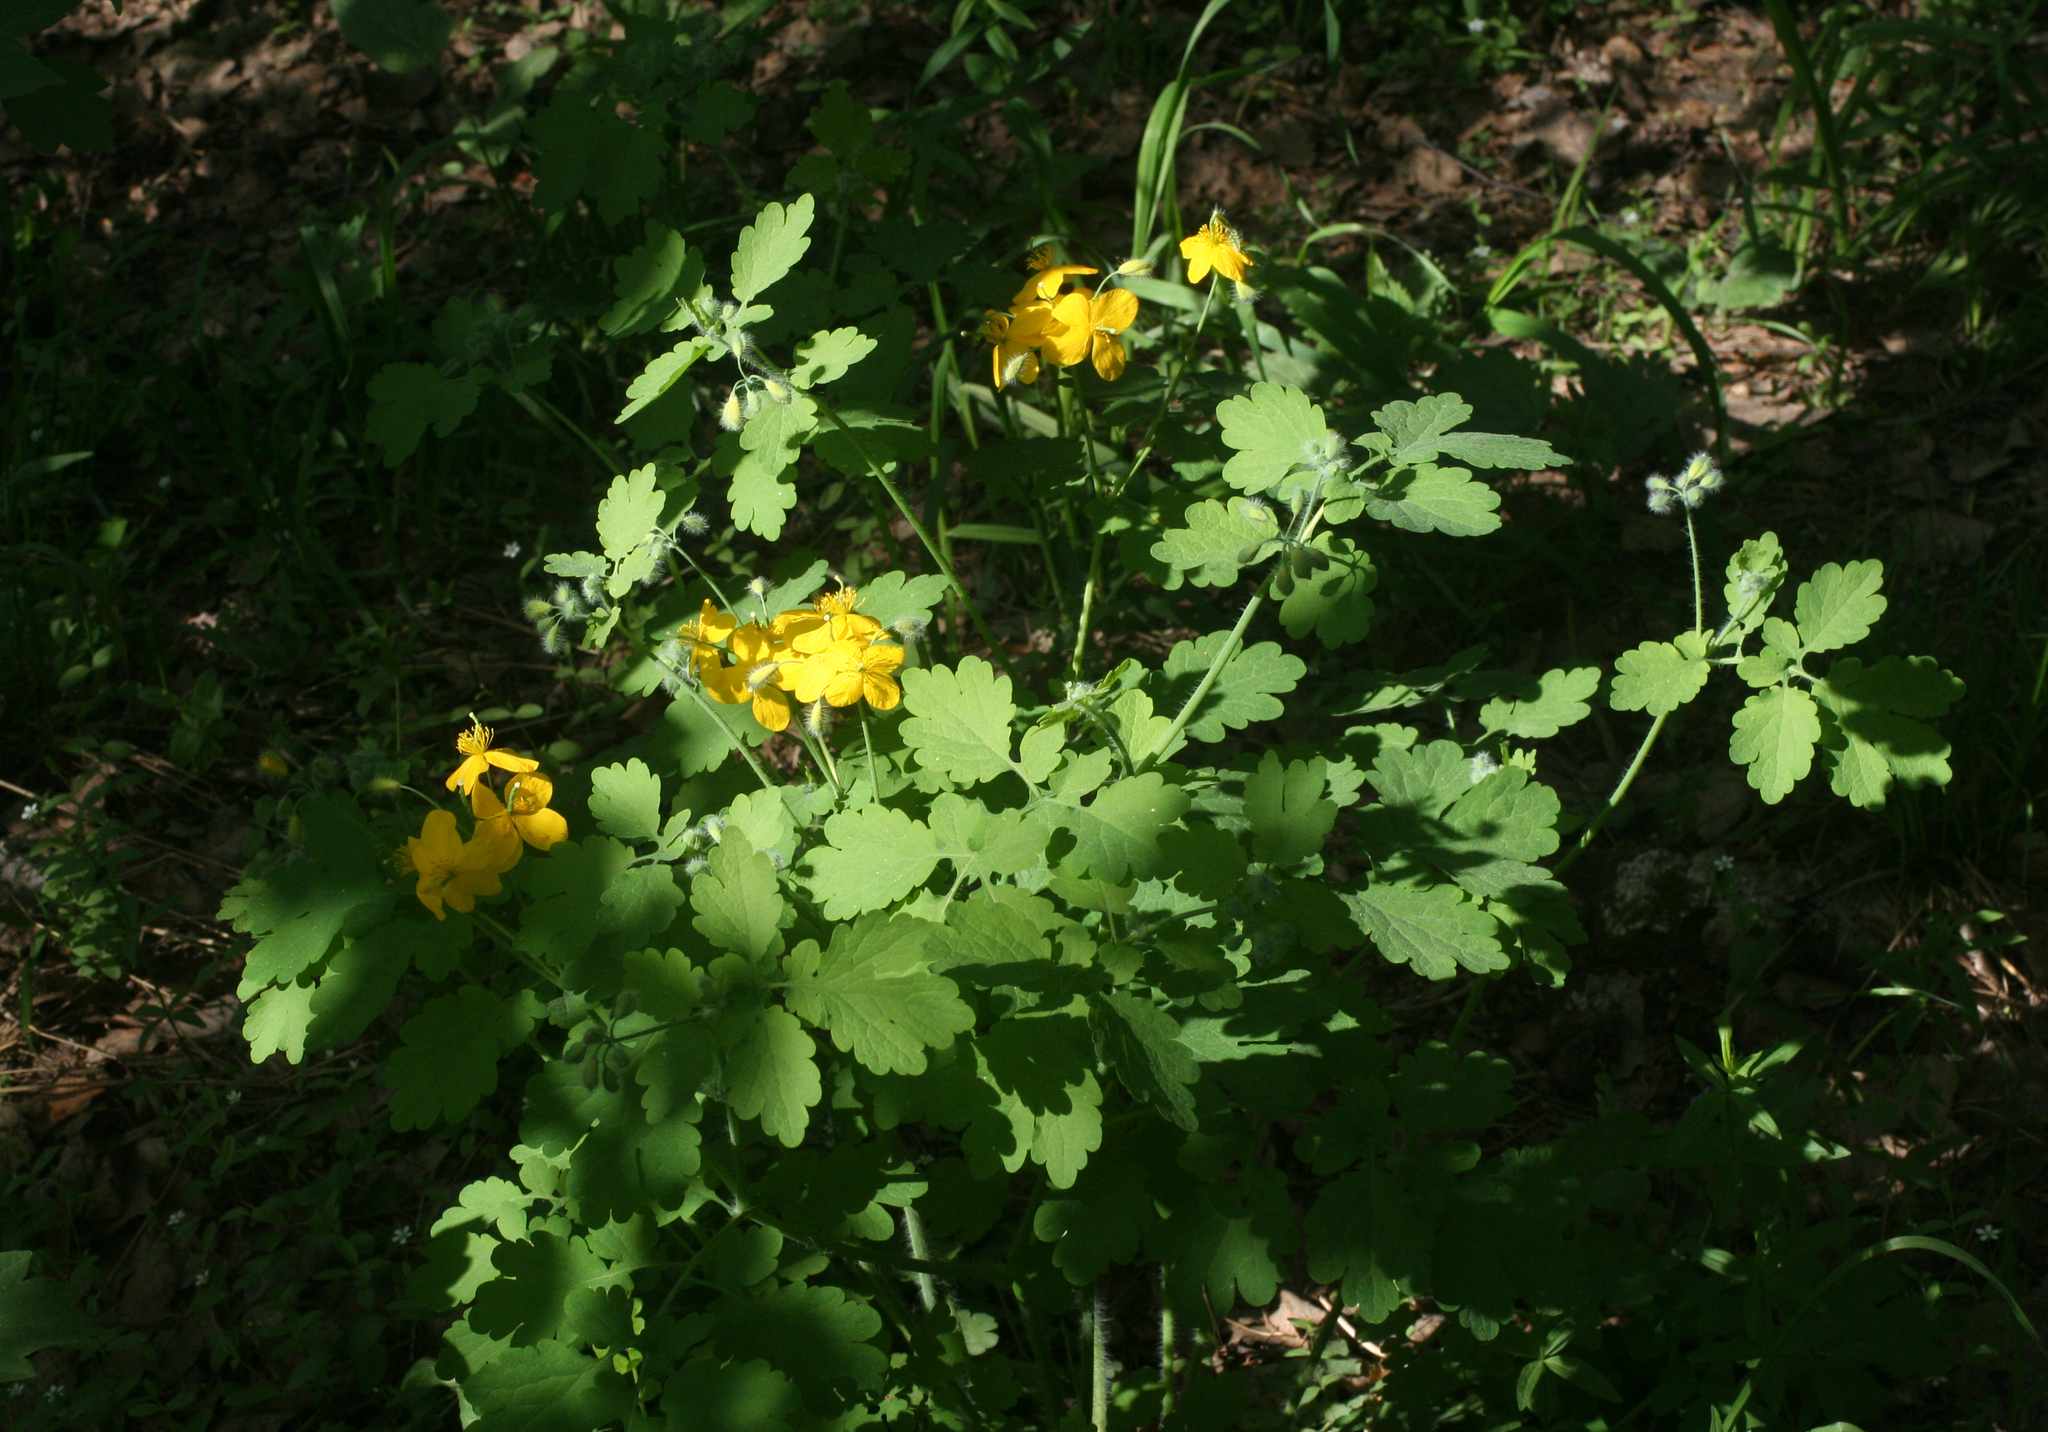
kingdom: Plantae
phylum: Tracheophyta
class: Magnoliopsida
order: Ranunculales
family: Papaveraceae
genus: Chelidonium
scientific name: Chelidonium majus
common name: Greater celandine
